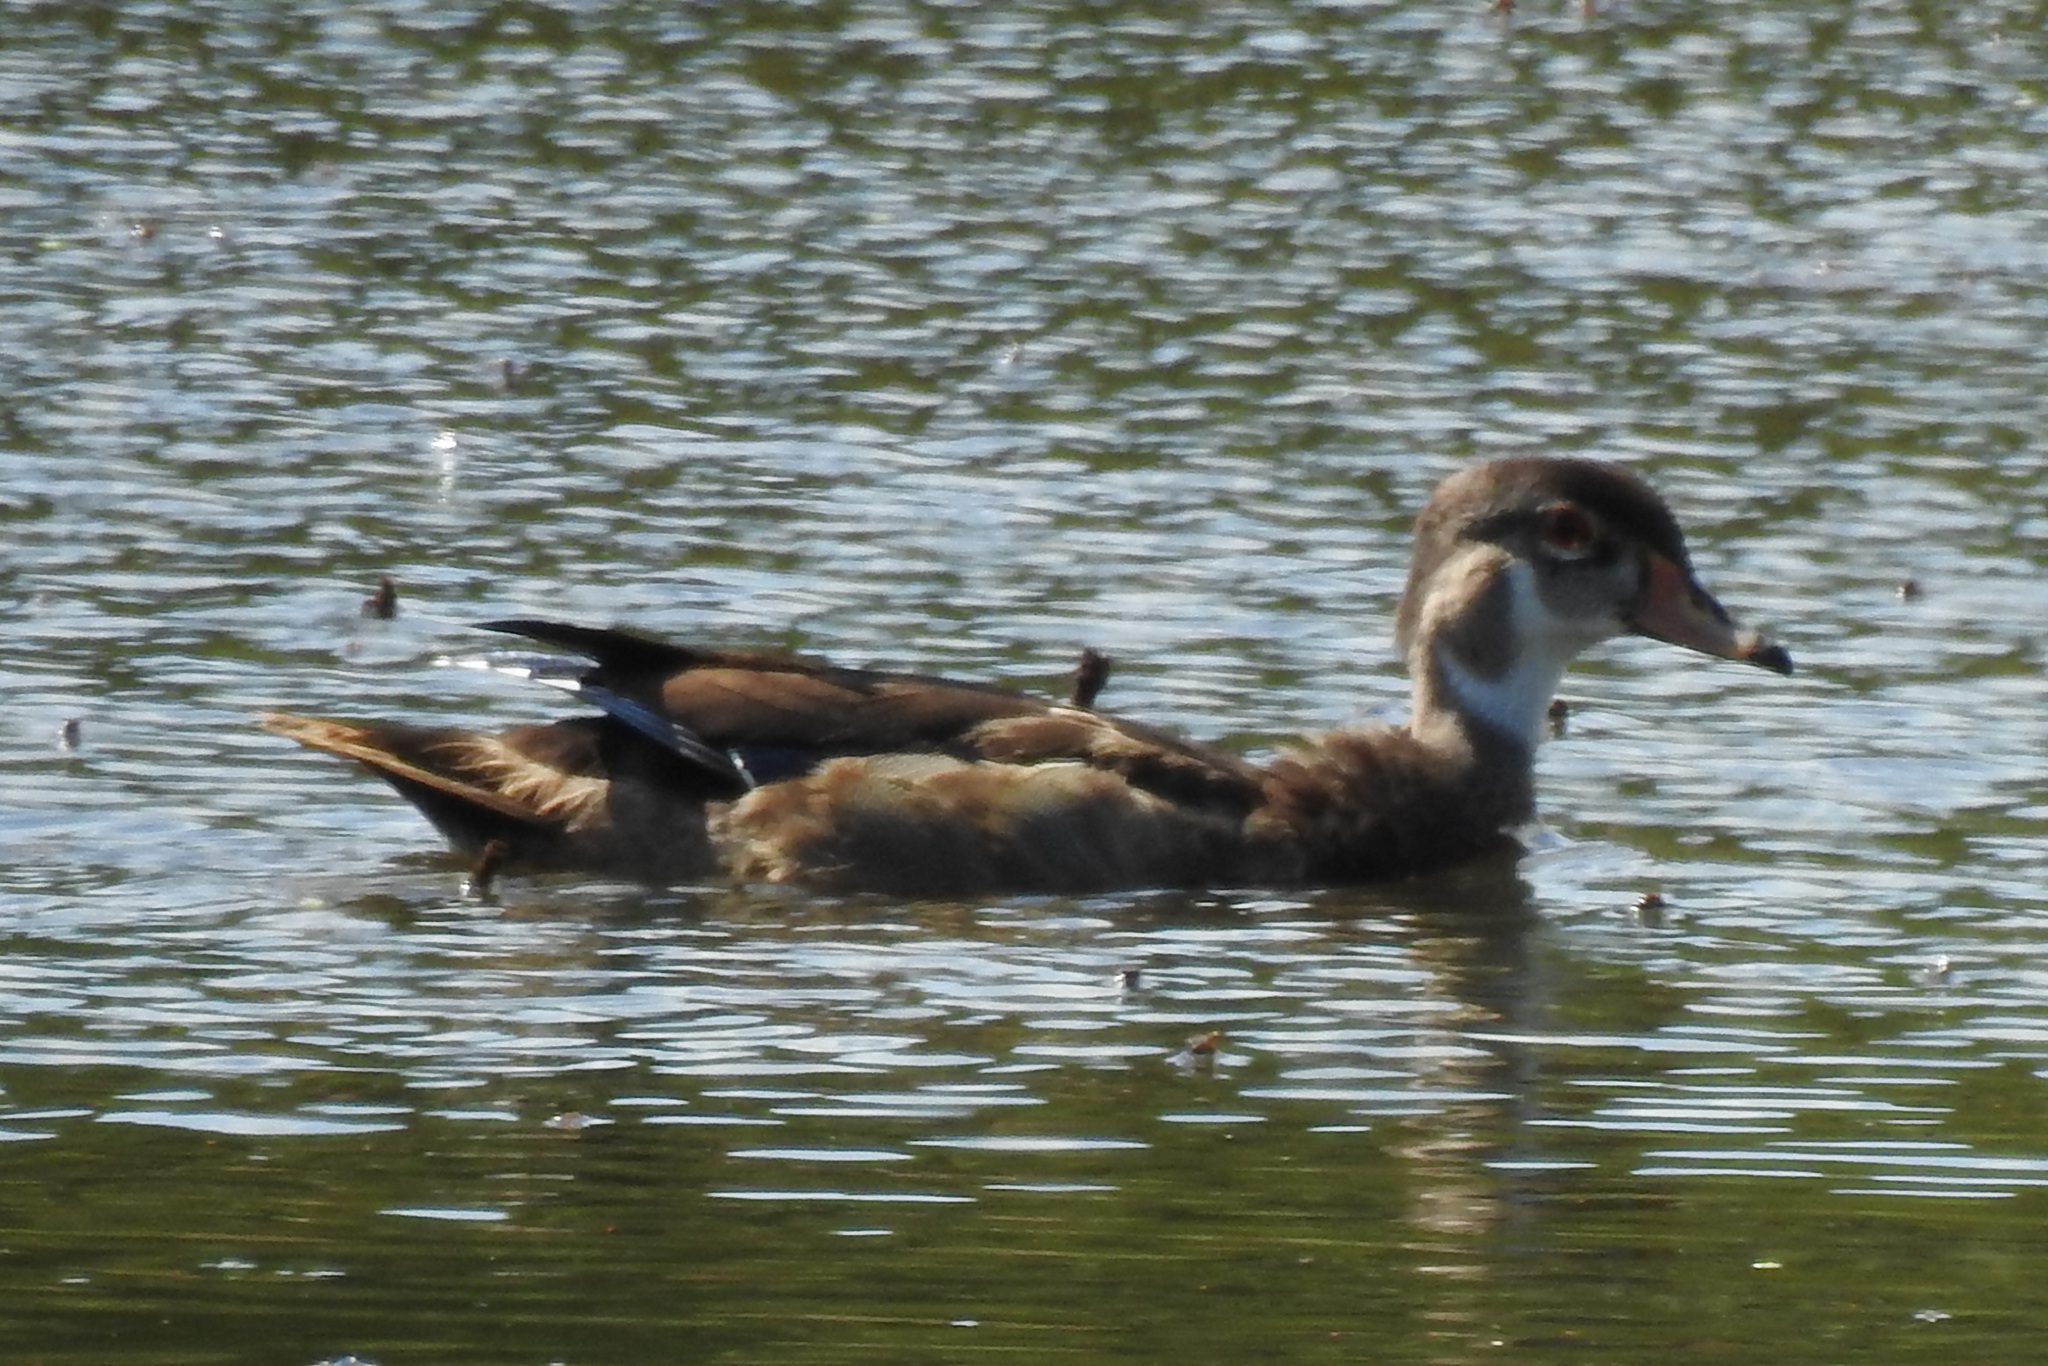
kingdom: Animalia
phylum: Chordata
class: Aves
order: Anseriformes
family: Anatidae
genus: Aix
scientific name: Aix sponsa
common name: Wood duck
